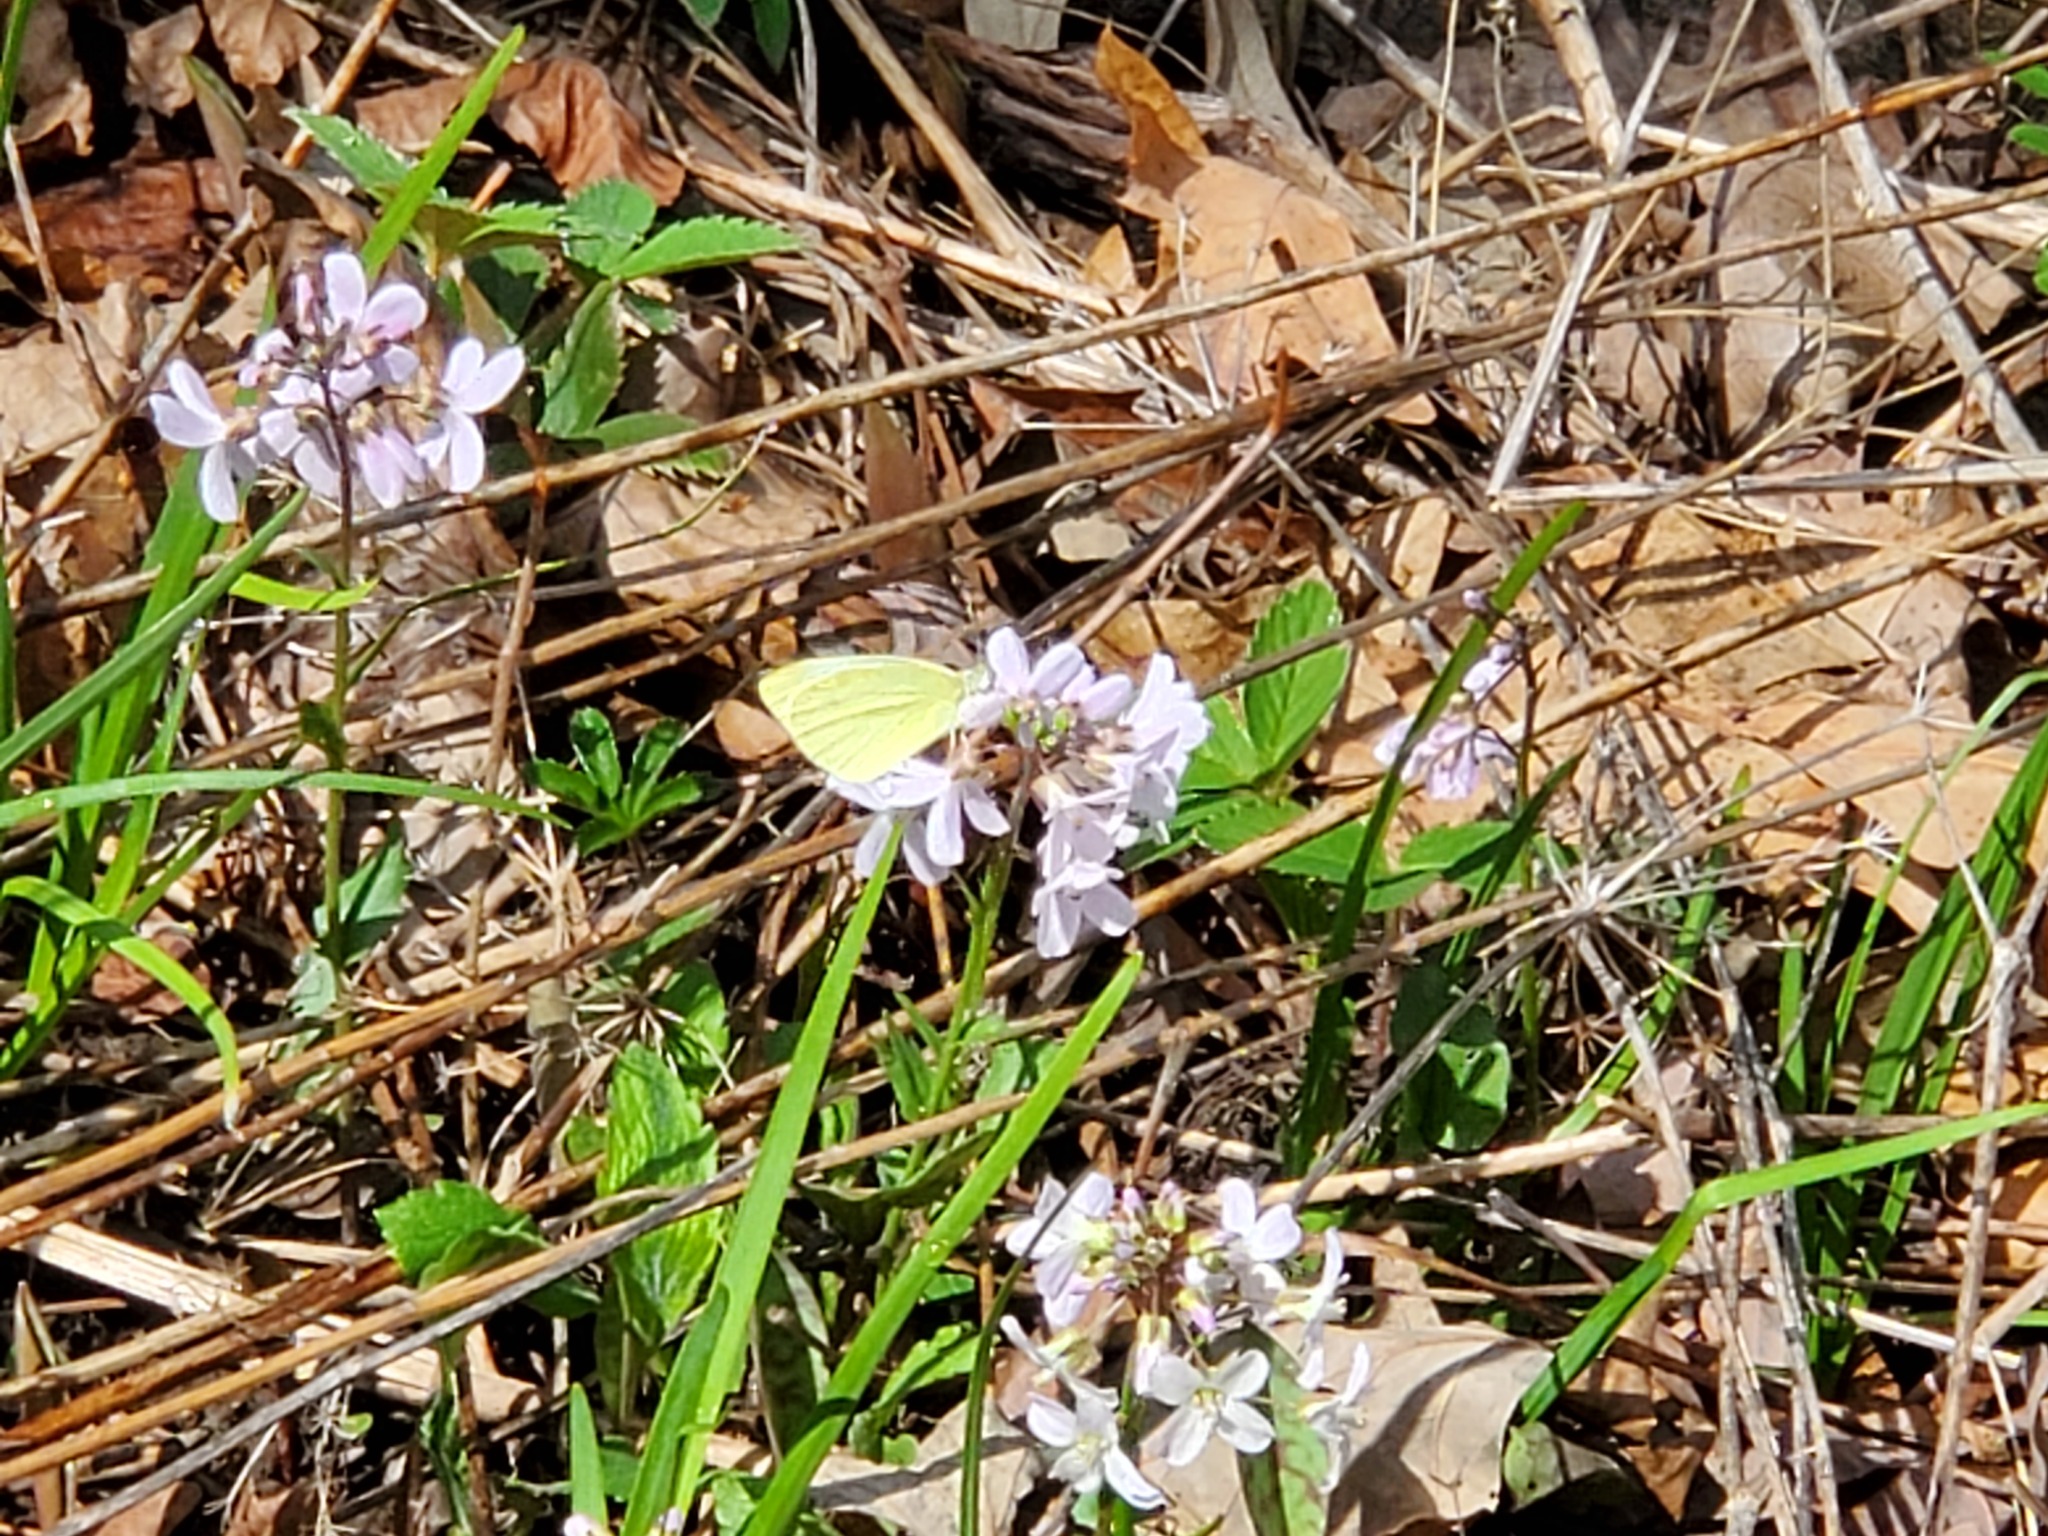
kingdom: Animalia
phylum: Arthropoda
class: Insecta
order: Lepidoptera
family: Pieridae
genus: Pieris
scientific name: Pieris rapae
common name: Small white
